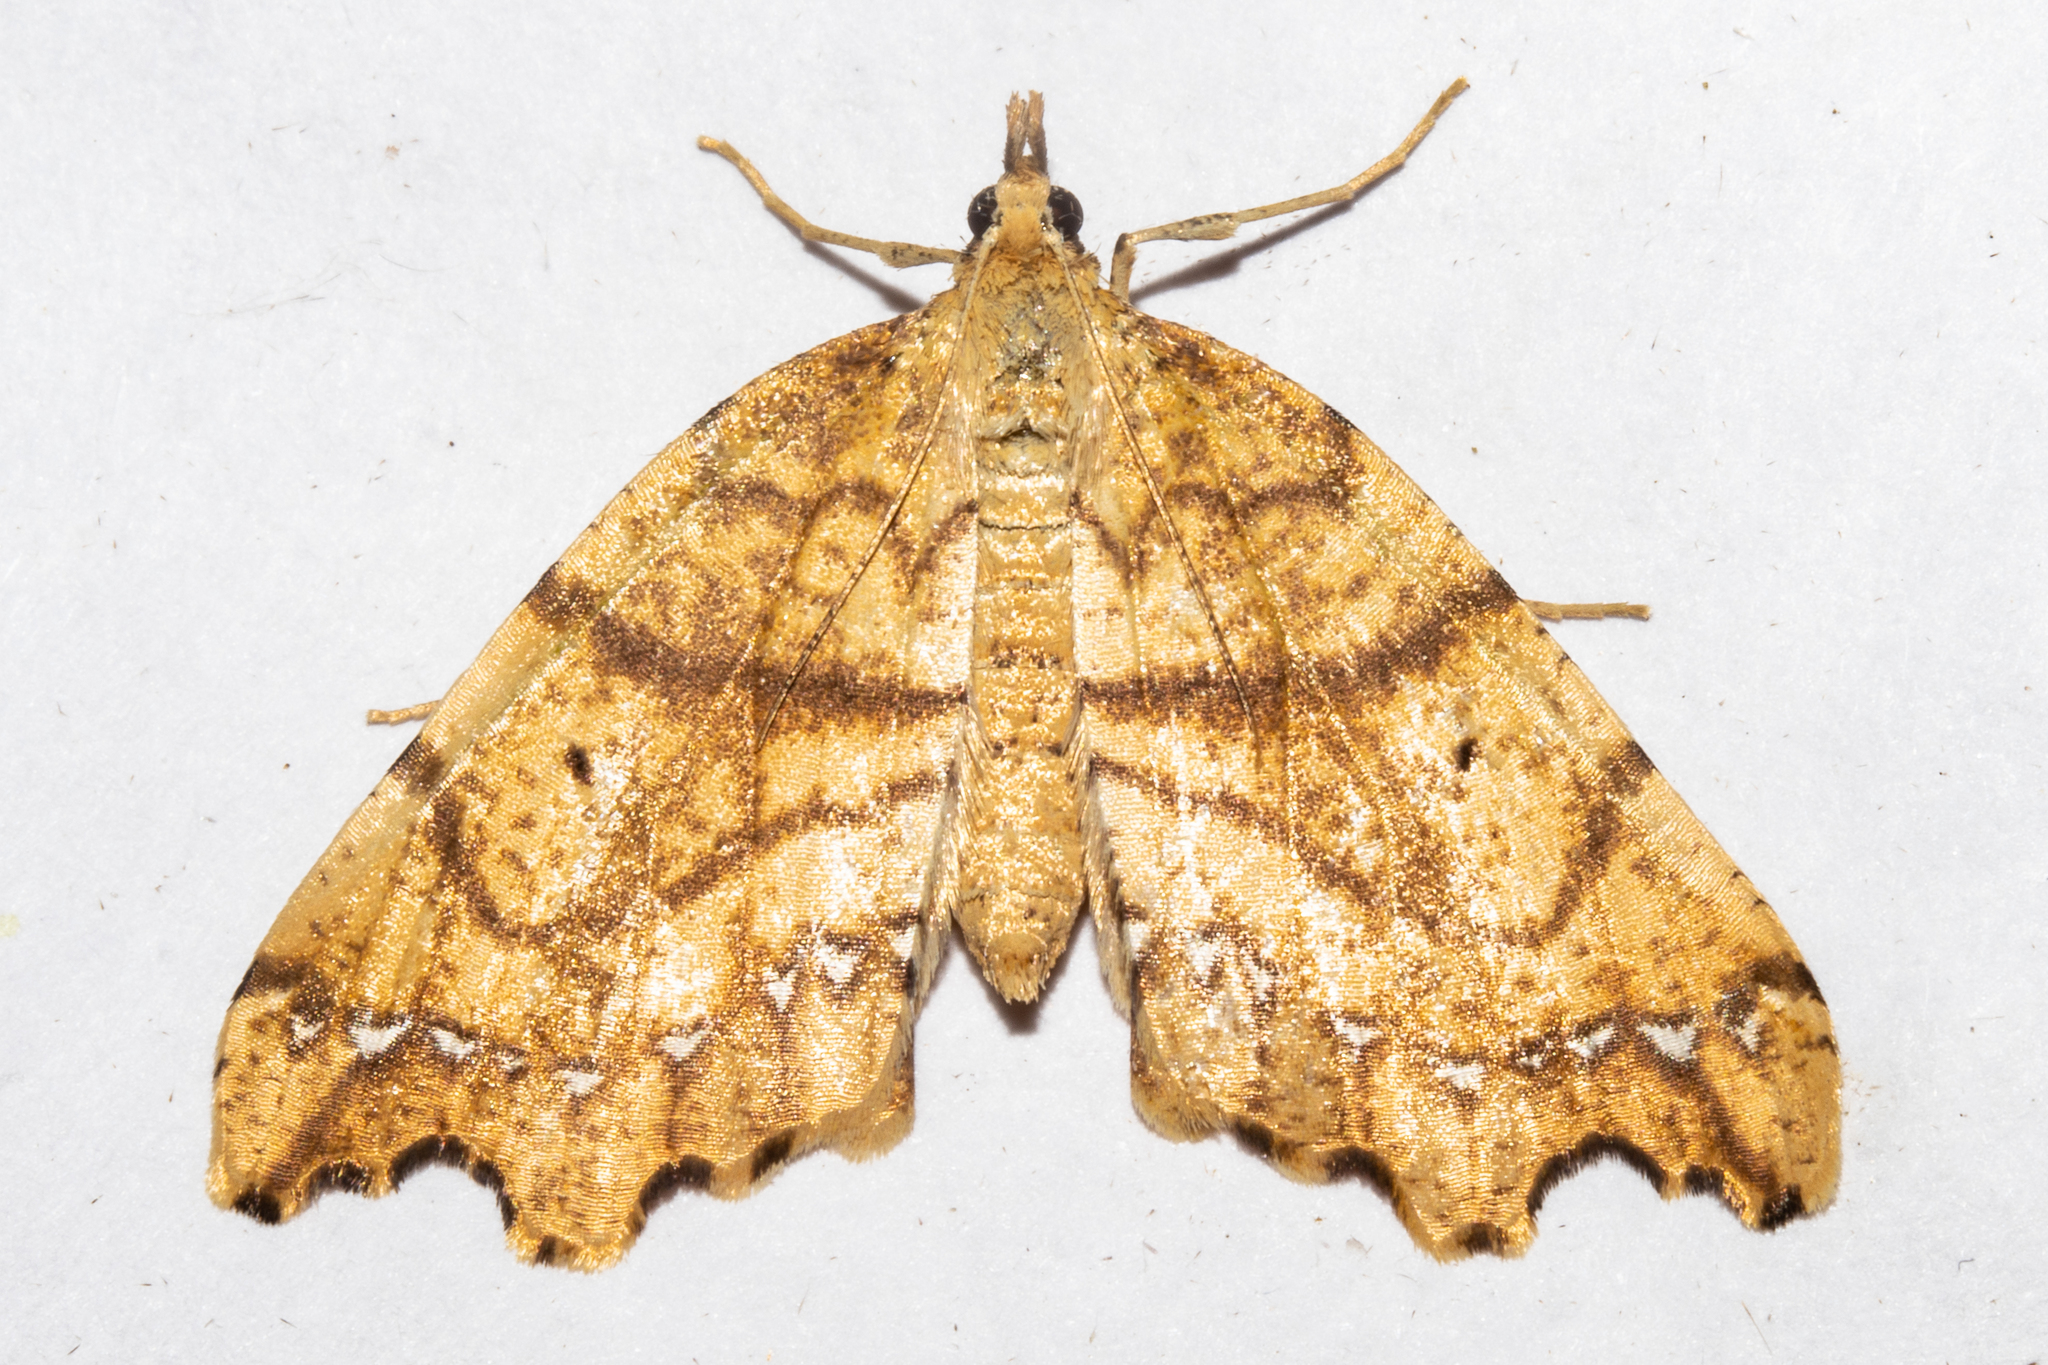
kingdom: Animalia
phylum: Arthropoda
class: Insecta
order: Lepidoptera
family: Geometridae
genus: Chalastra
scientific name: Chalastra pellurgata
